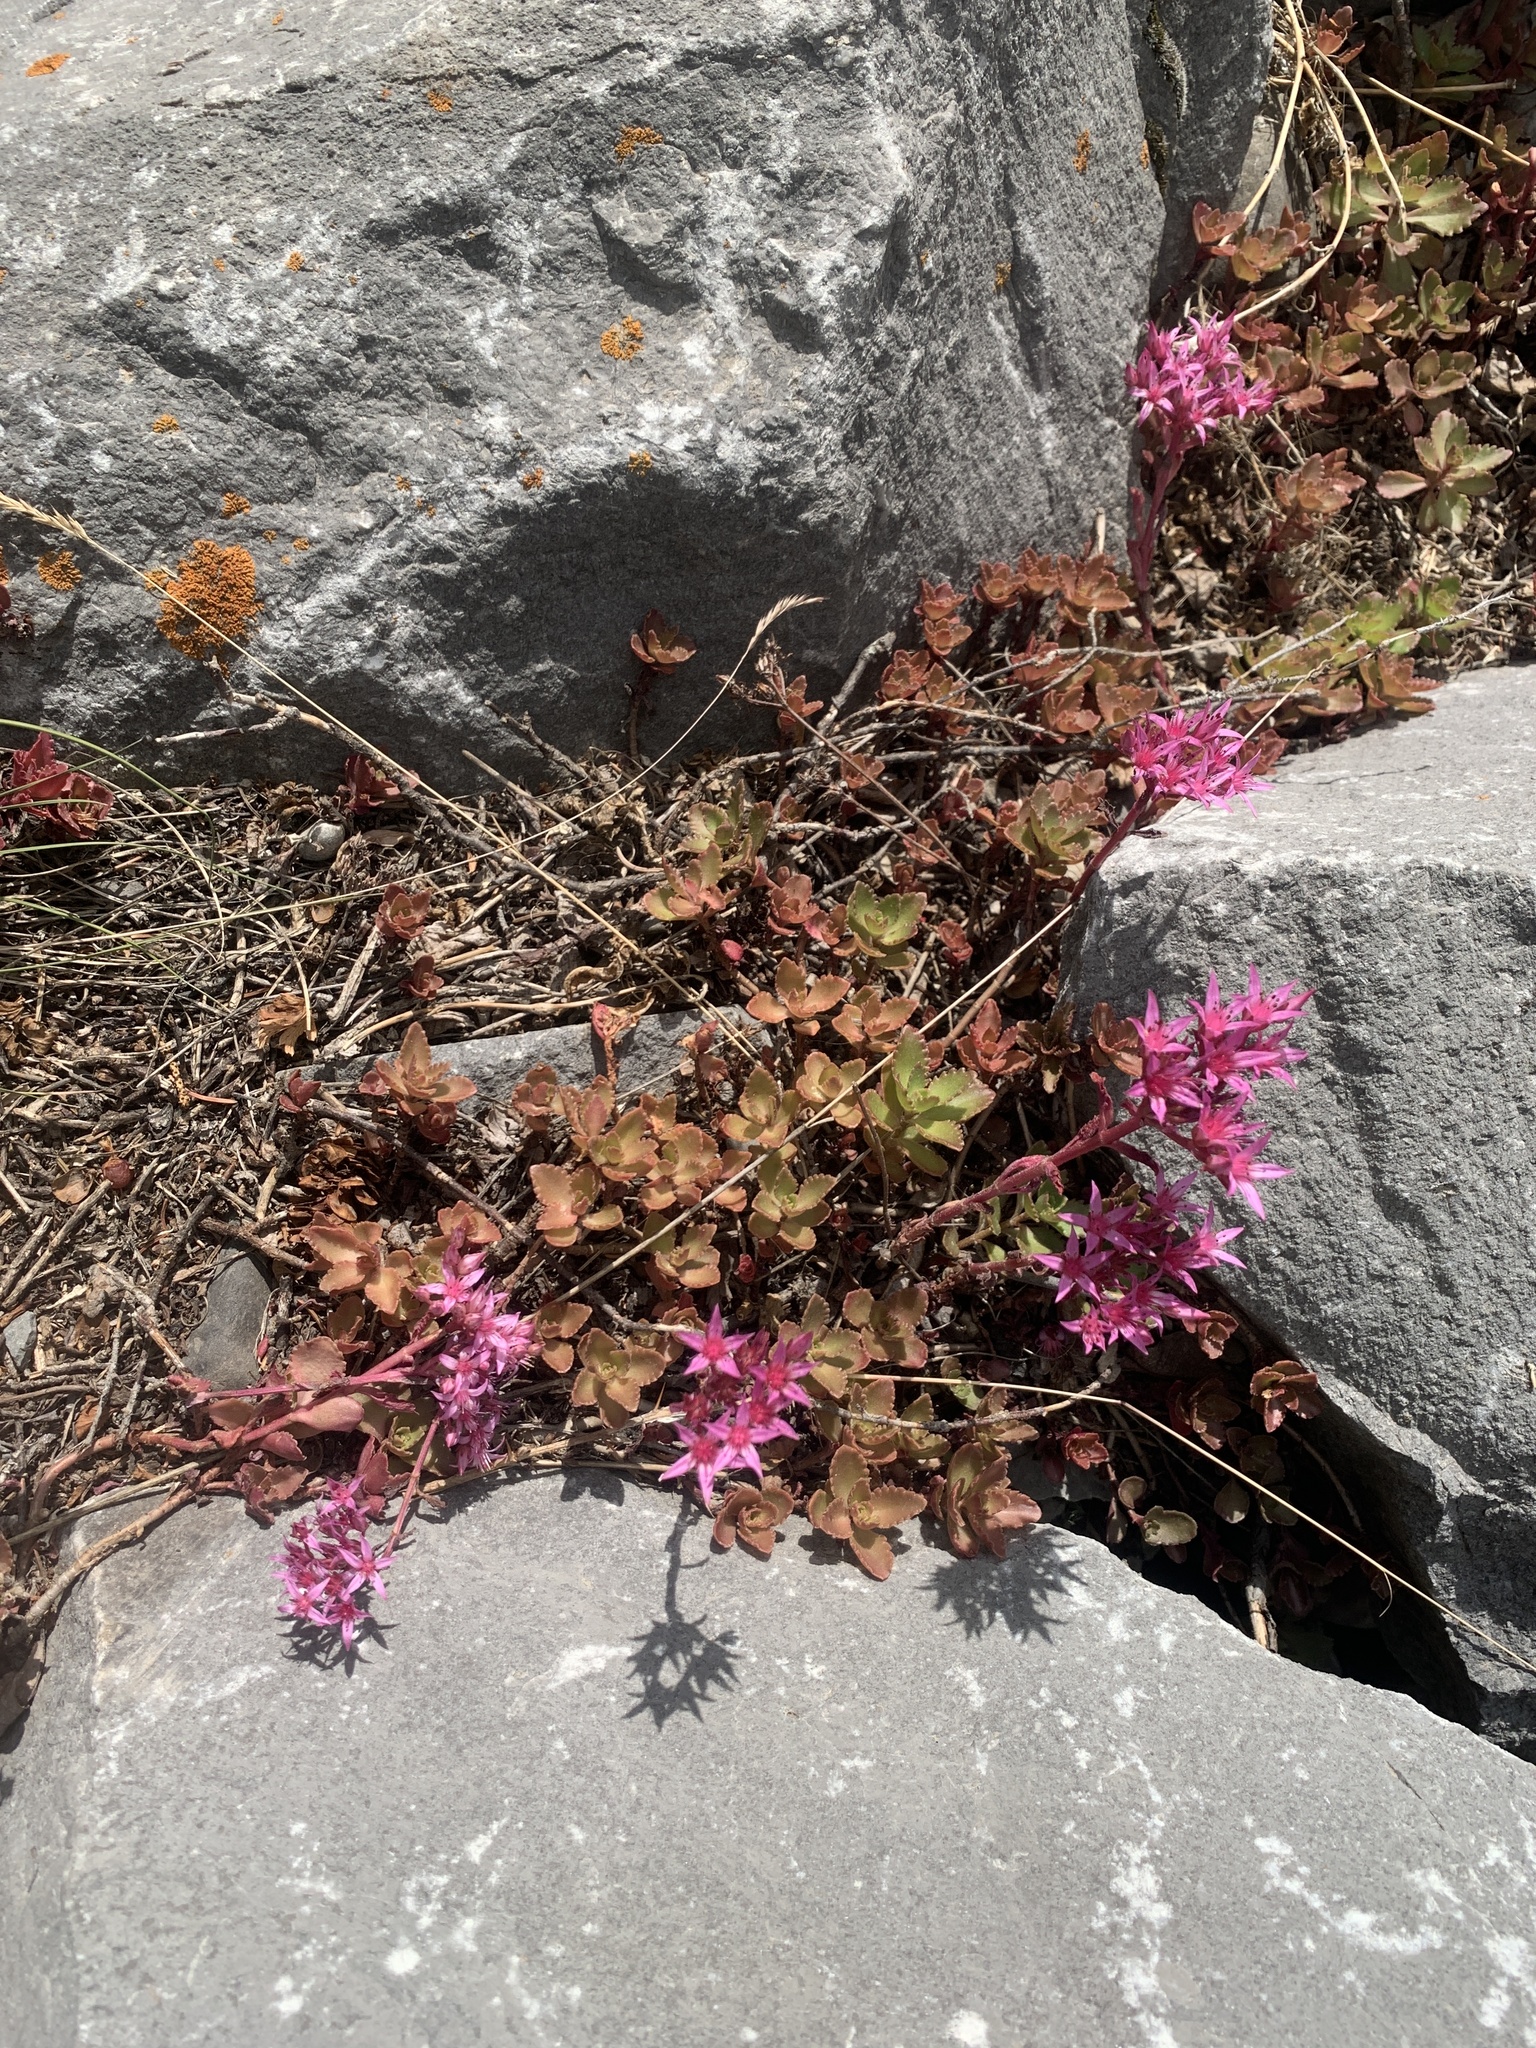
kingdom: Plantae
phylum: Tracheophyta
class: Magnoliopsida
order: Saxifragales
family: Crassulaceae
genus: Phedimus
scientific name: Phedimus spurius
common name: Caucasian stonecrop
